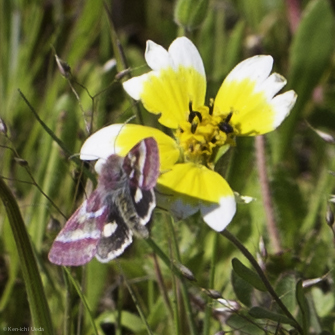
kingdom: Animalia
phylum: Arthropoda
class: Insecta
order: Lepidoptera
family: Noctuidae
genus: Schinia
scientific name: Schinia pulchripennis
